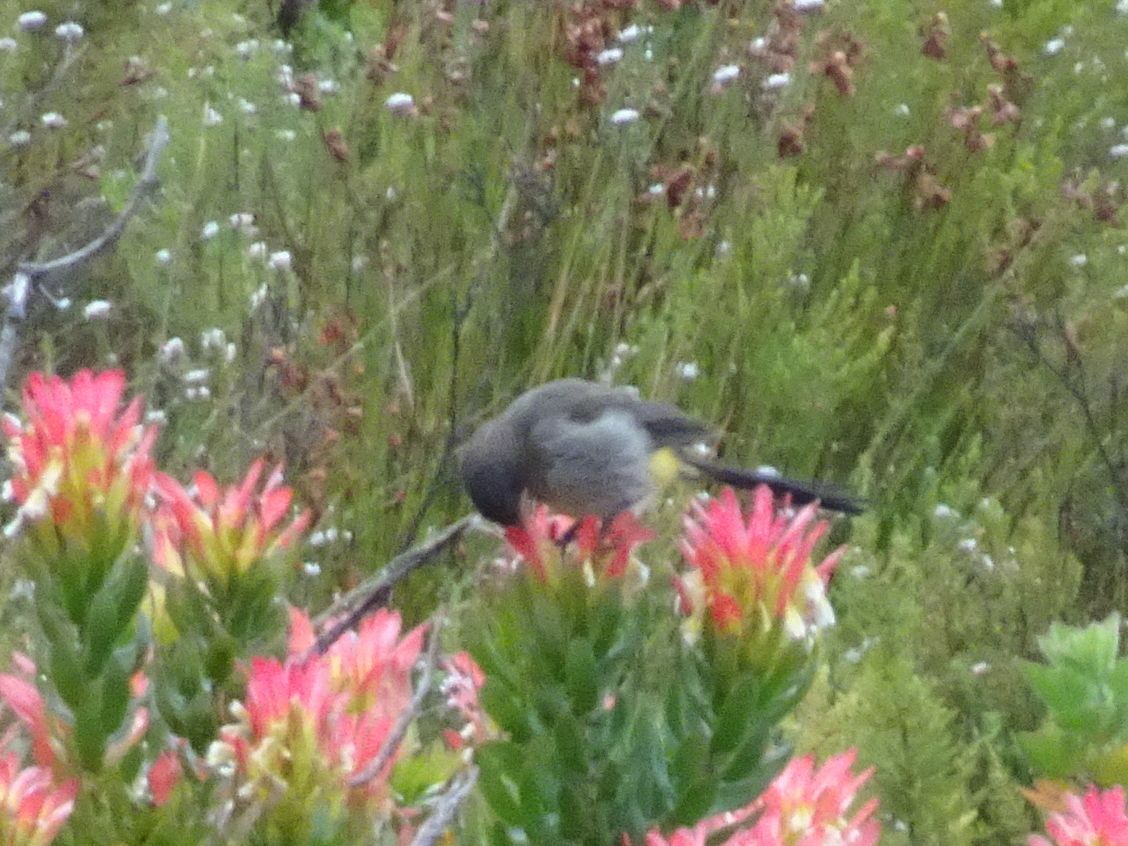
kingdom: Animalia
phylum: Chordata
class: Aves
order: Passeriformes
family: Promeropidae
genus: Promerops
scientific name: Promerops cafer
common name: Cape sugarbird
